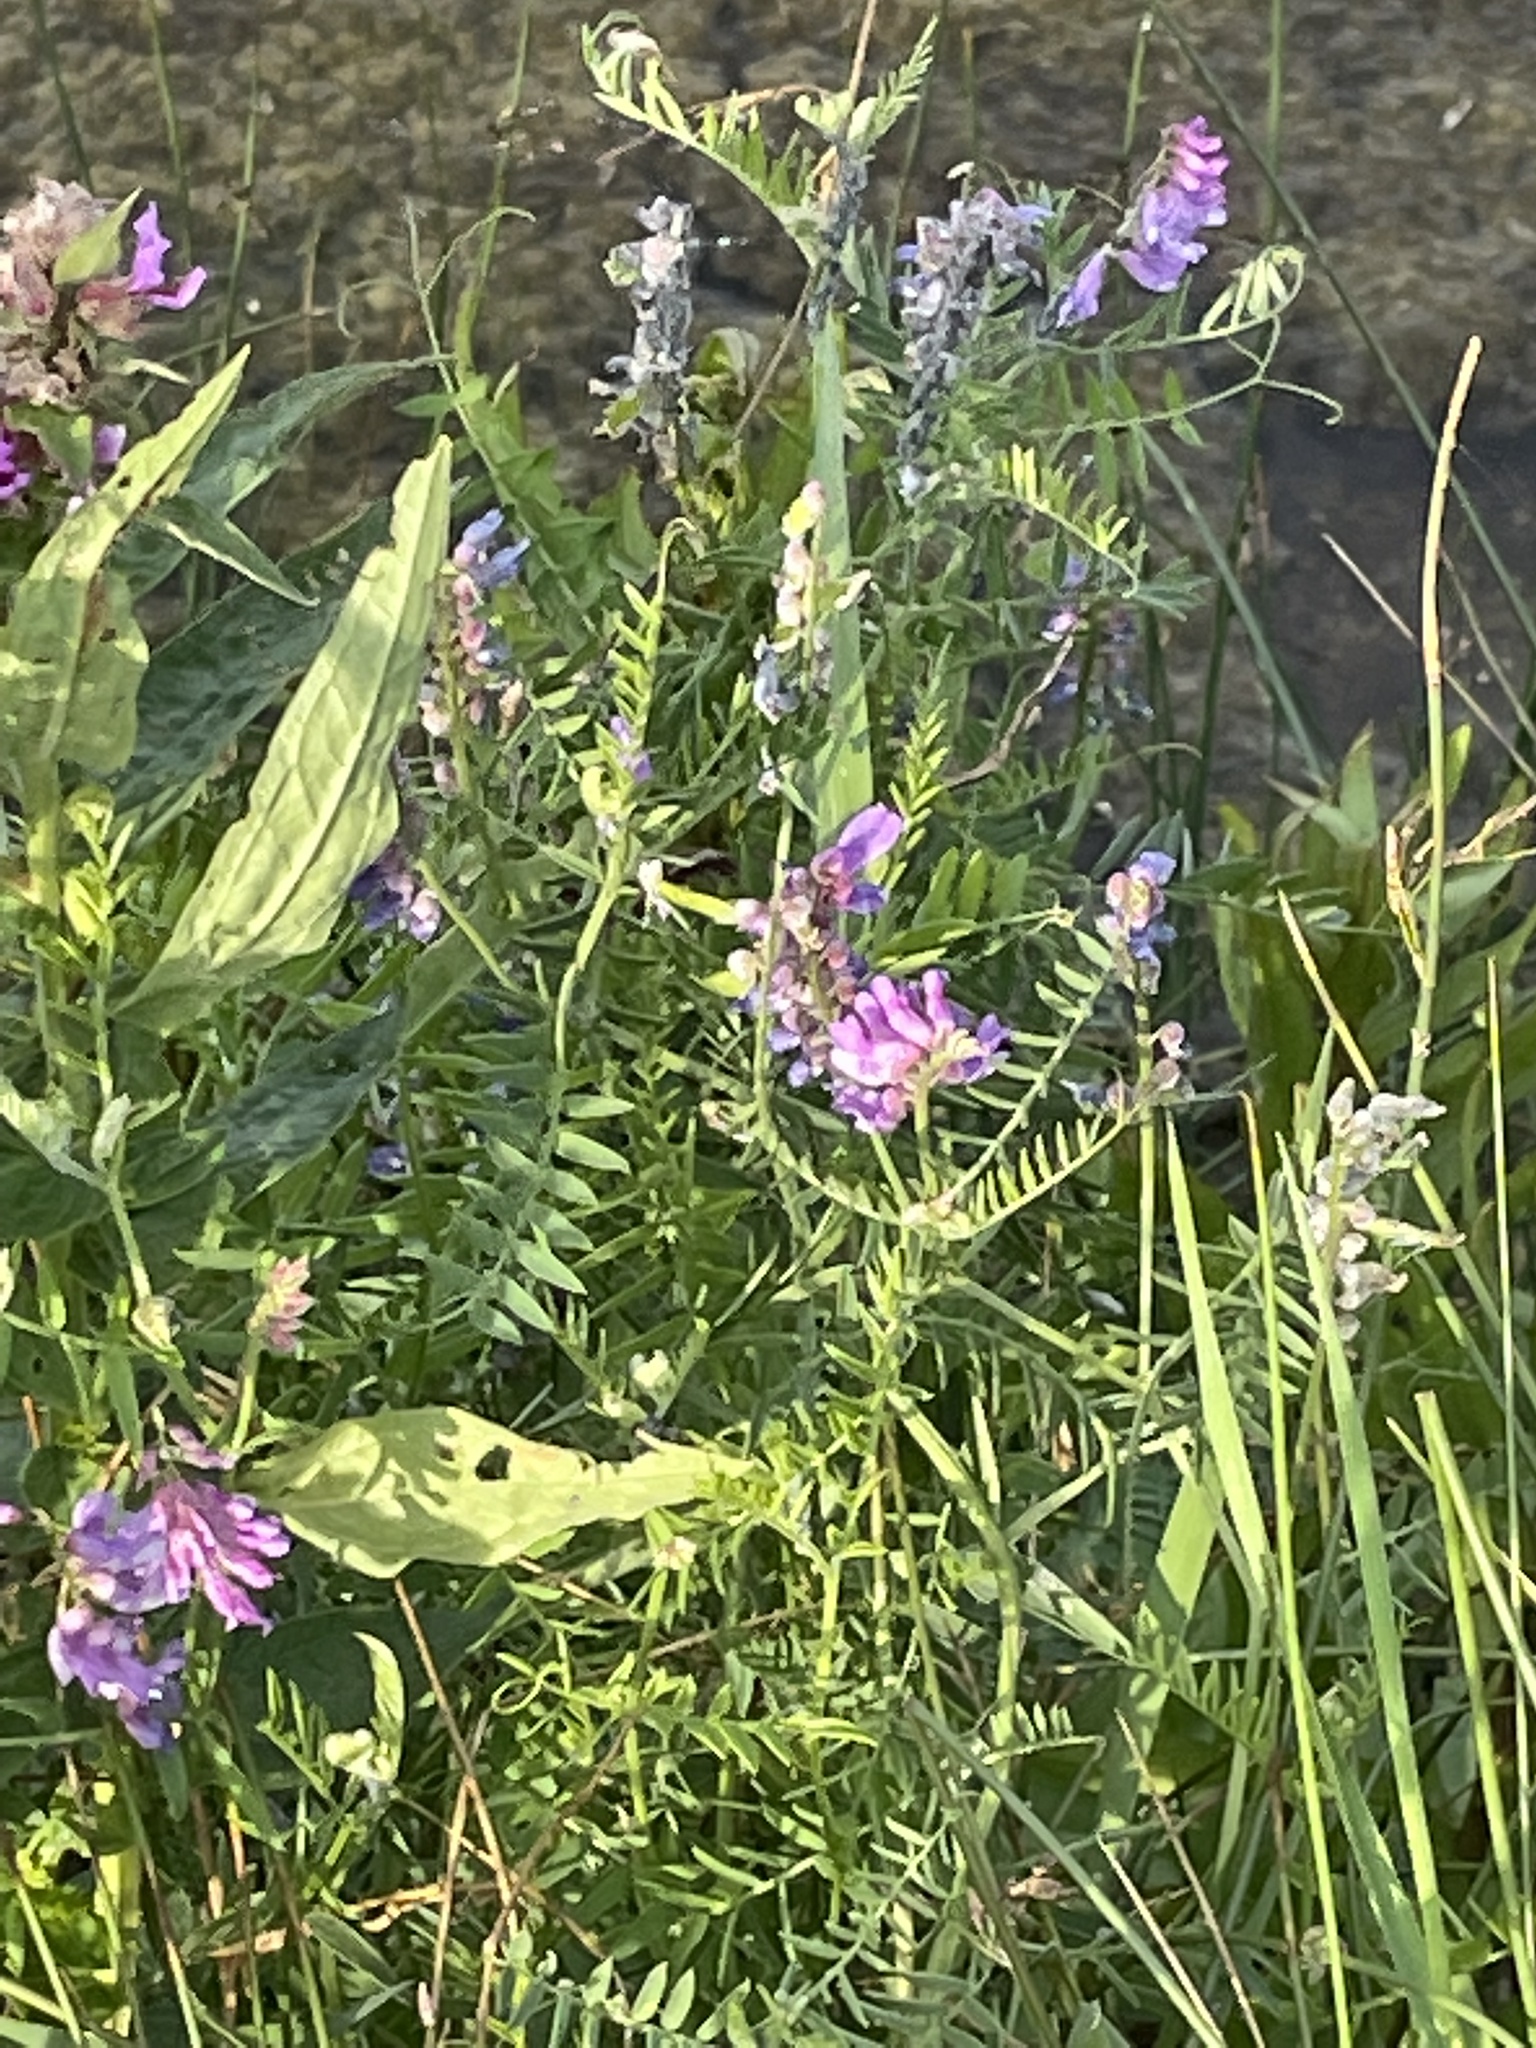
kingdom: Plantae
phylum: Tracheophyta
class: Magnoliopsida
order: Fabales
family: Fabaceae
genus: Vicia
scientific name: Vicia cracca
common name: Bird vetch
